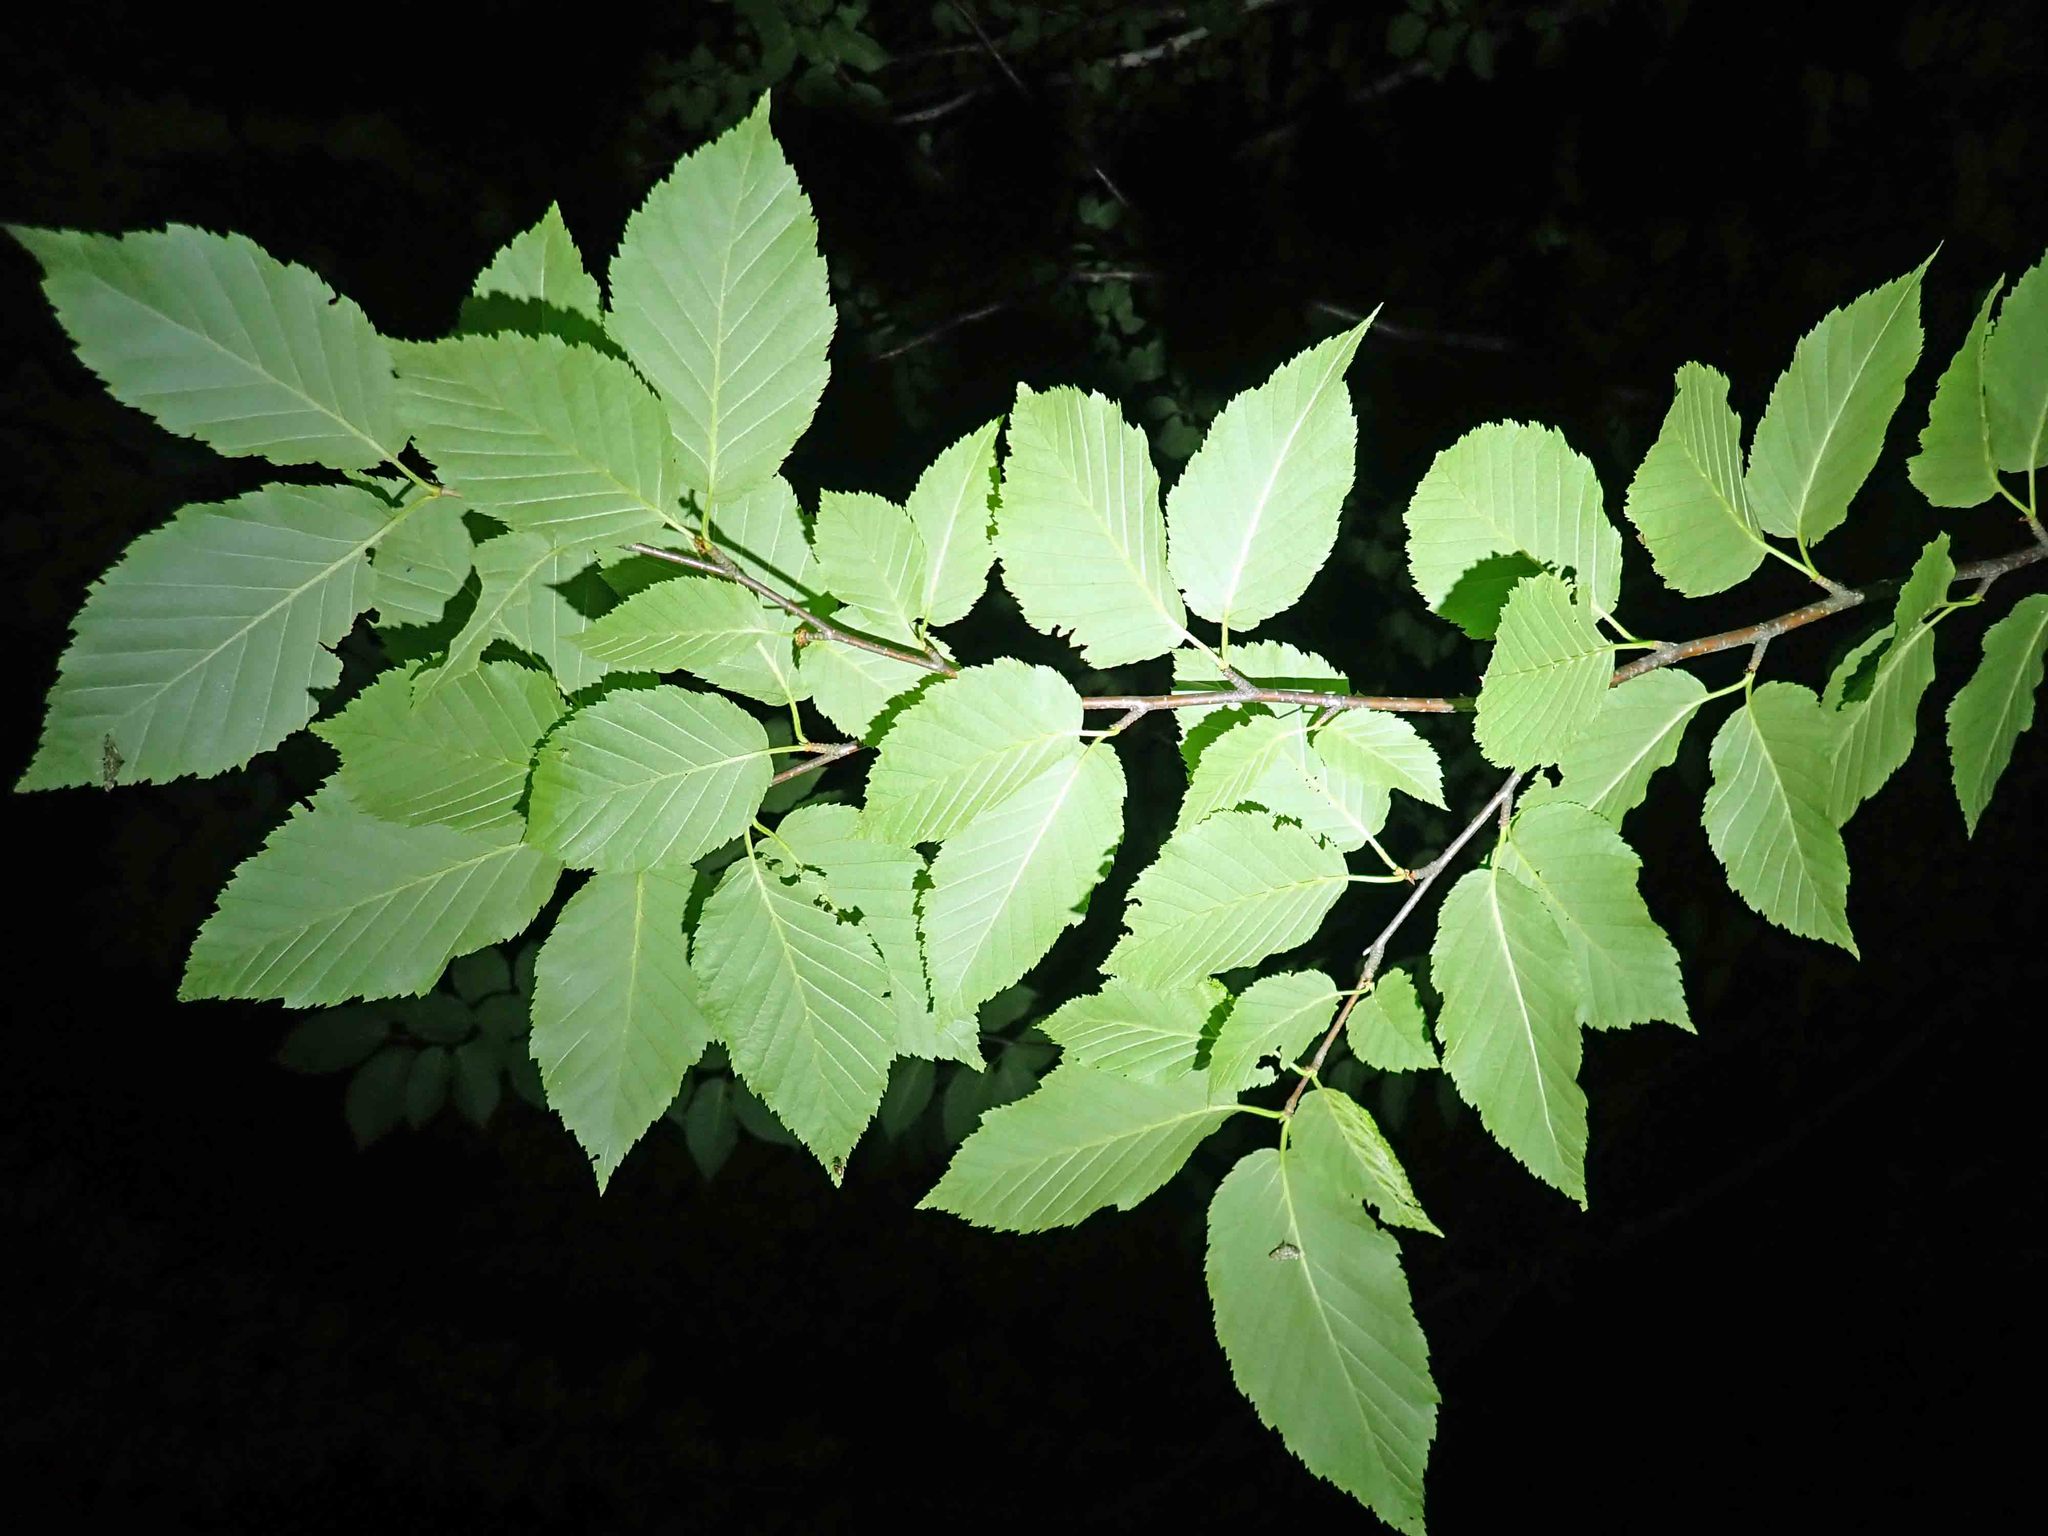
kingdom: Plantae
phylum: Tracheophyta
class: Magnoliopsida
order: Fagales
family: Betulaceae
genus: Betula
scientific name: Betula alleghaniensis
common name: Yellow birch
